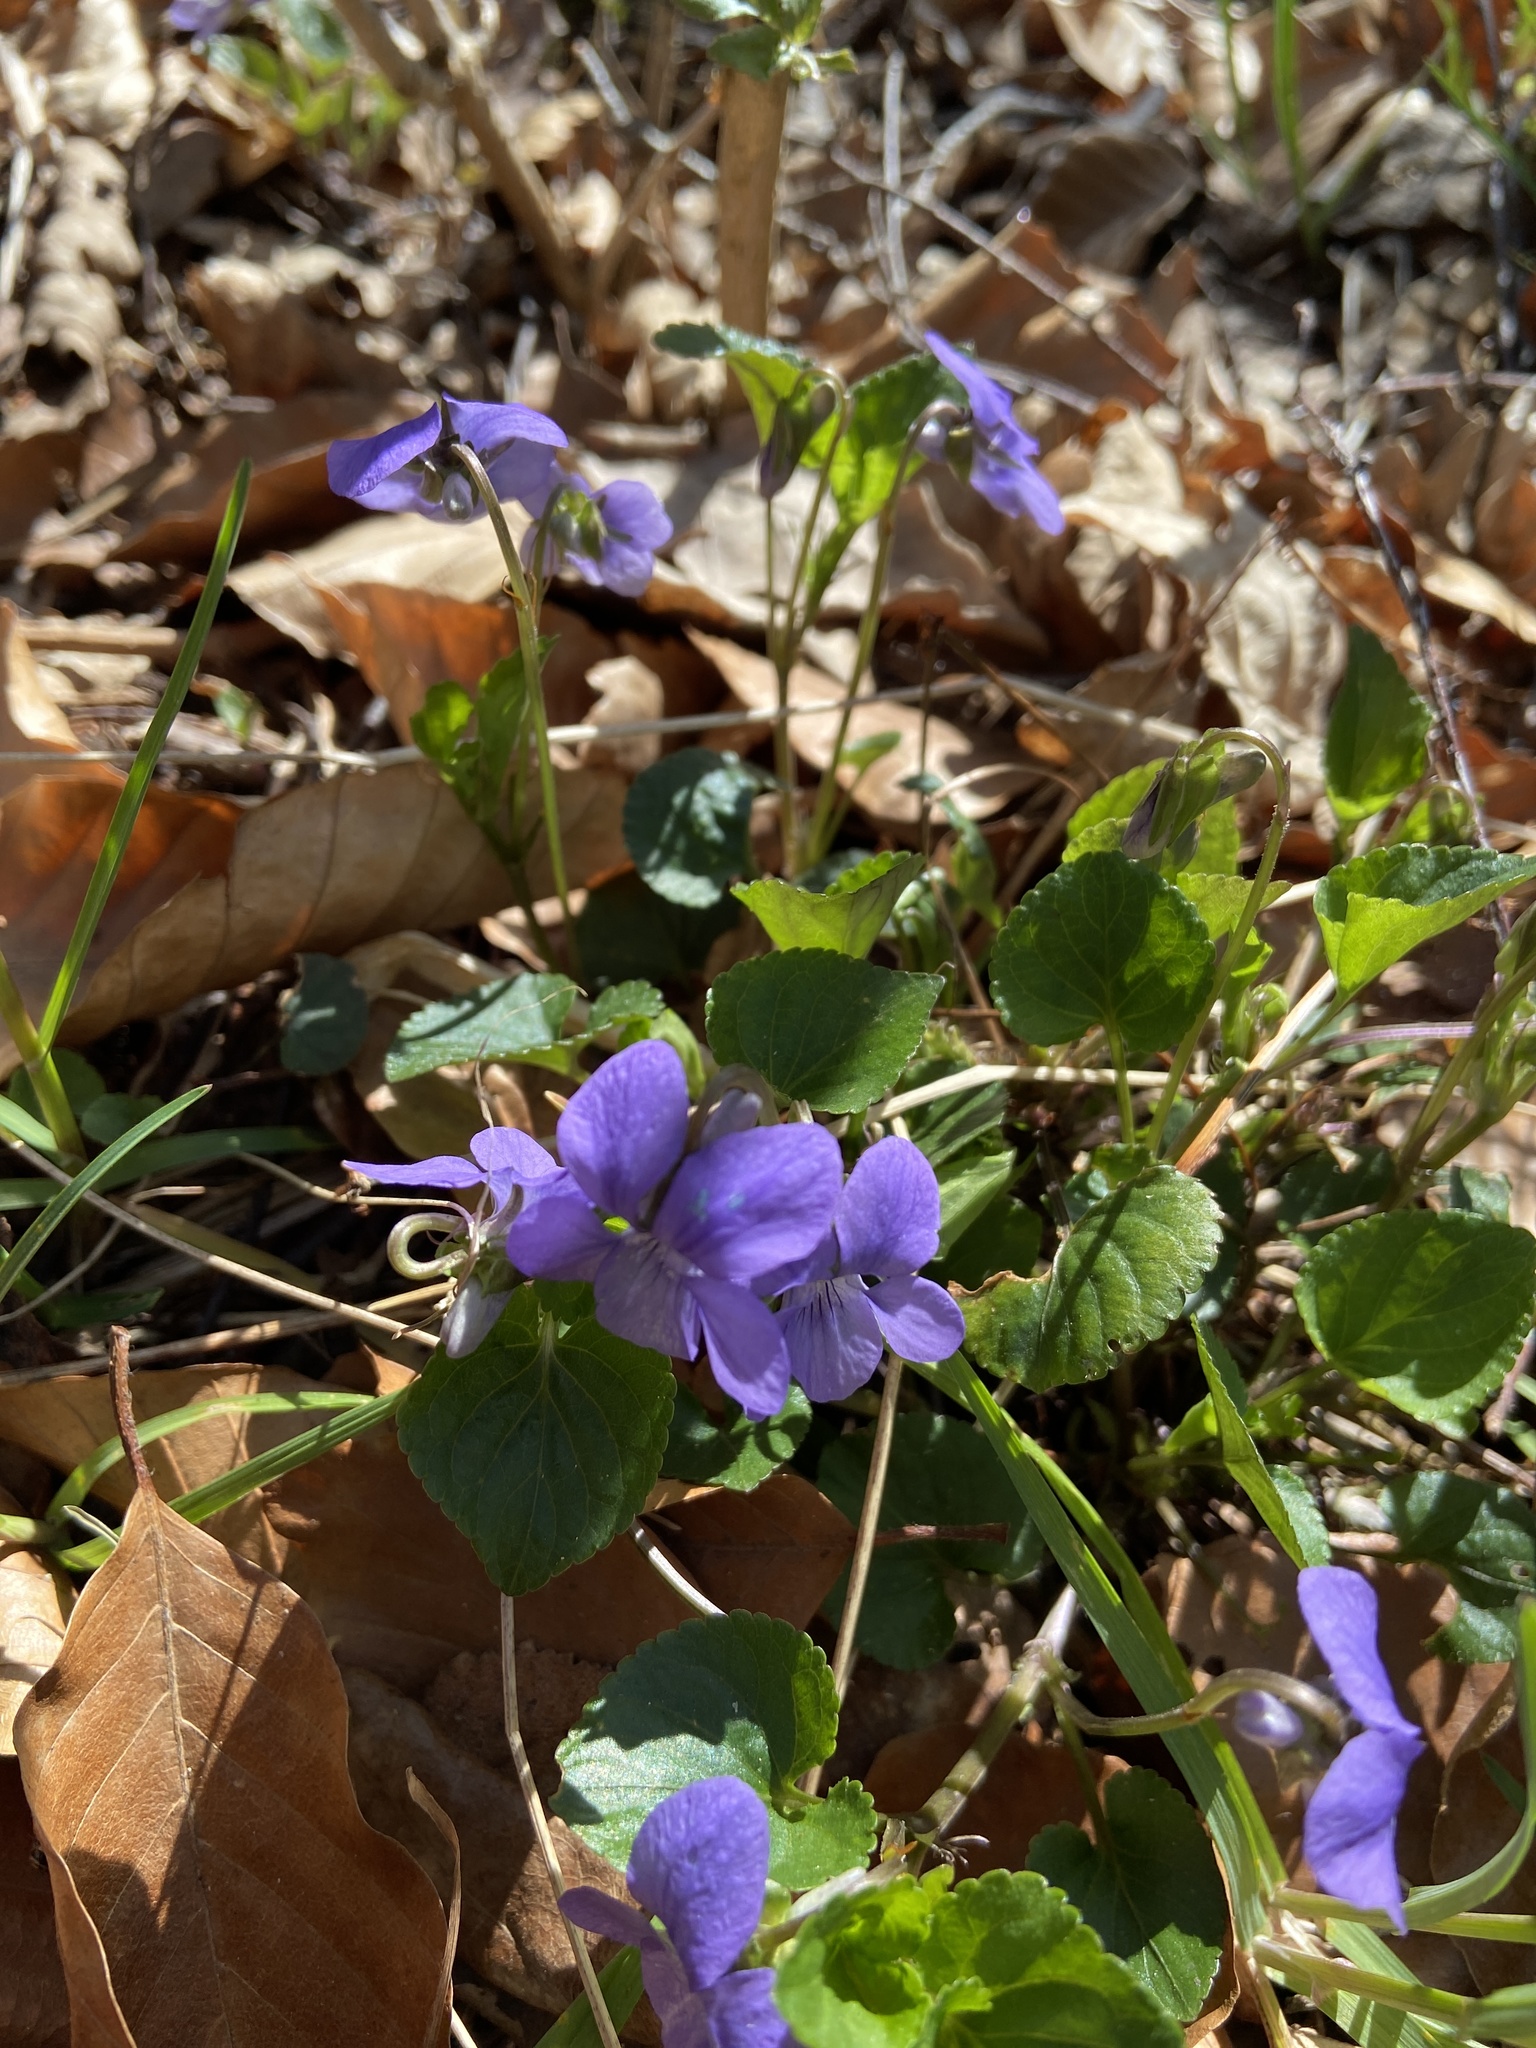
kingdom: Plantae
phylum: Tracheophyta
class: Magnoliopsida
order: Malpighiales
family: Violaceae
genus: Viola
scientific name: Viola reichenbachiana
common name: Early dog-violet
